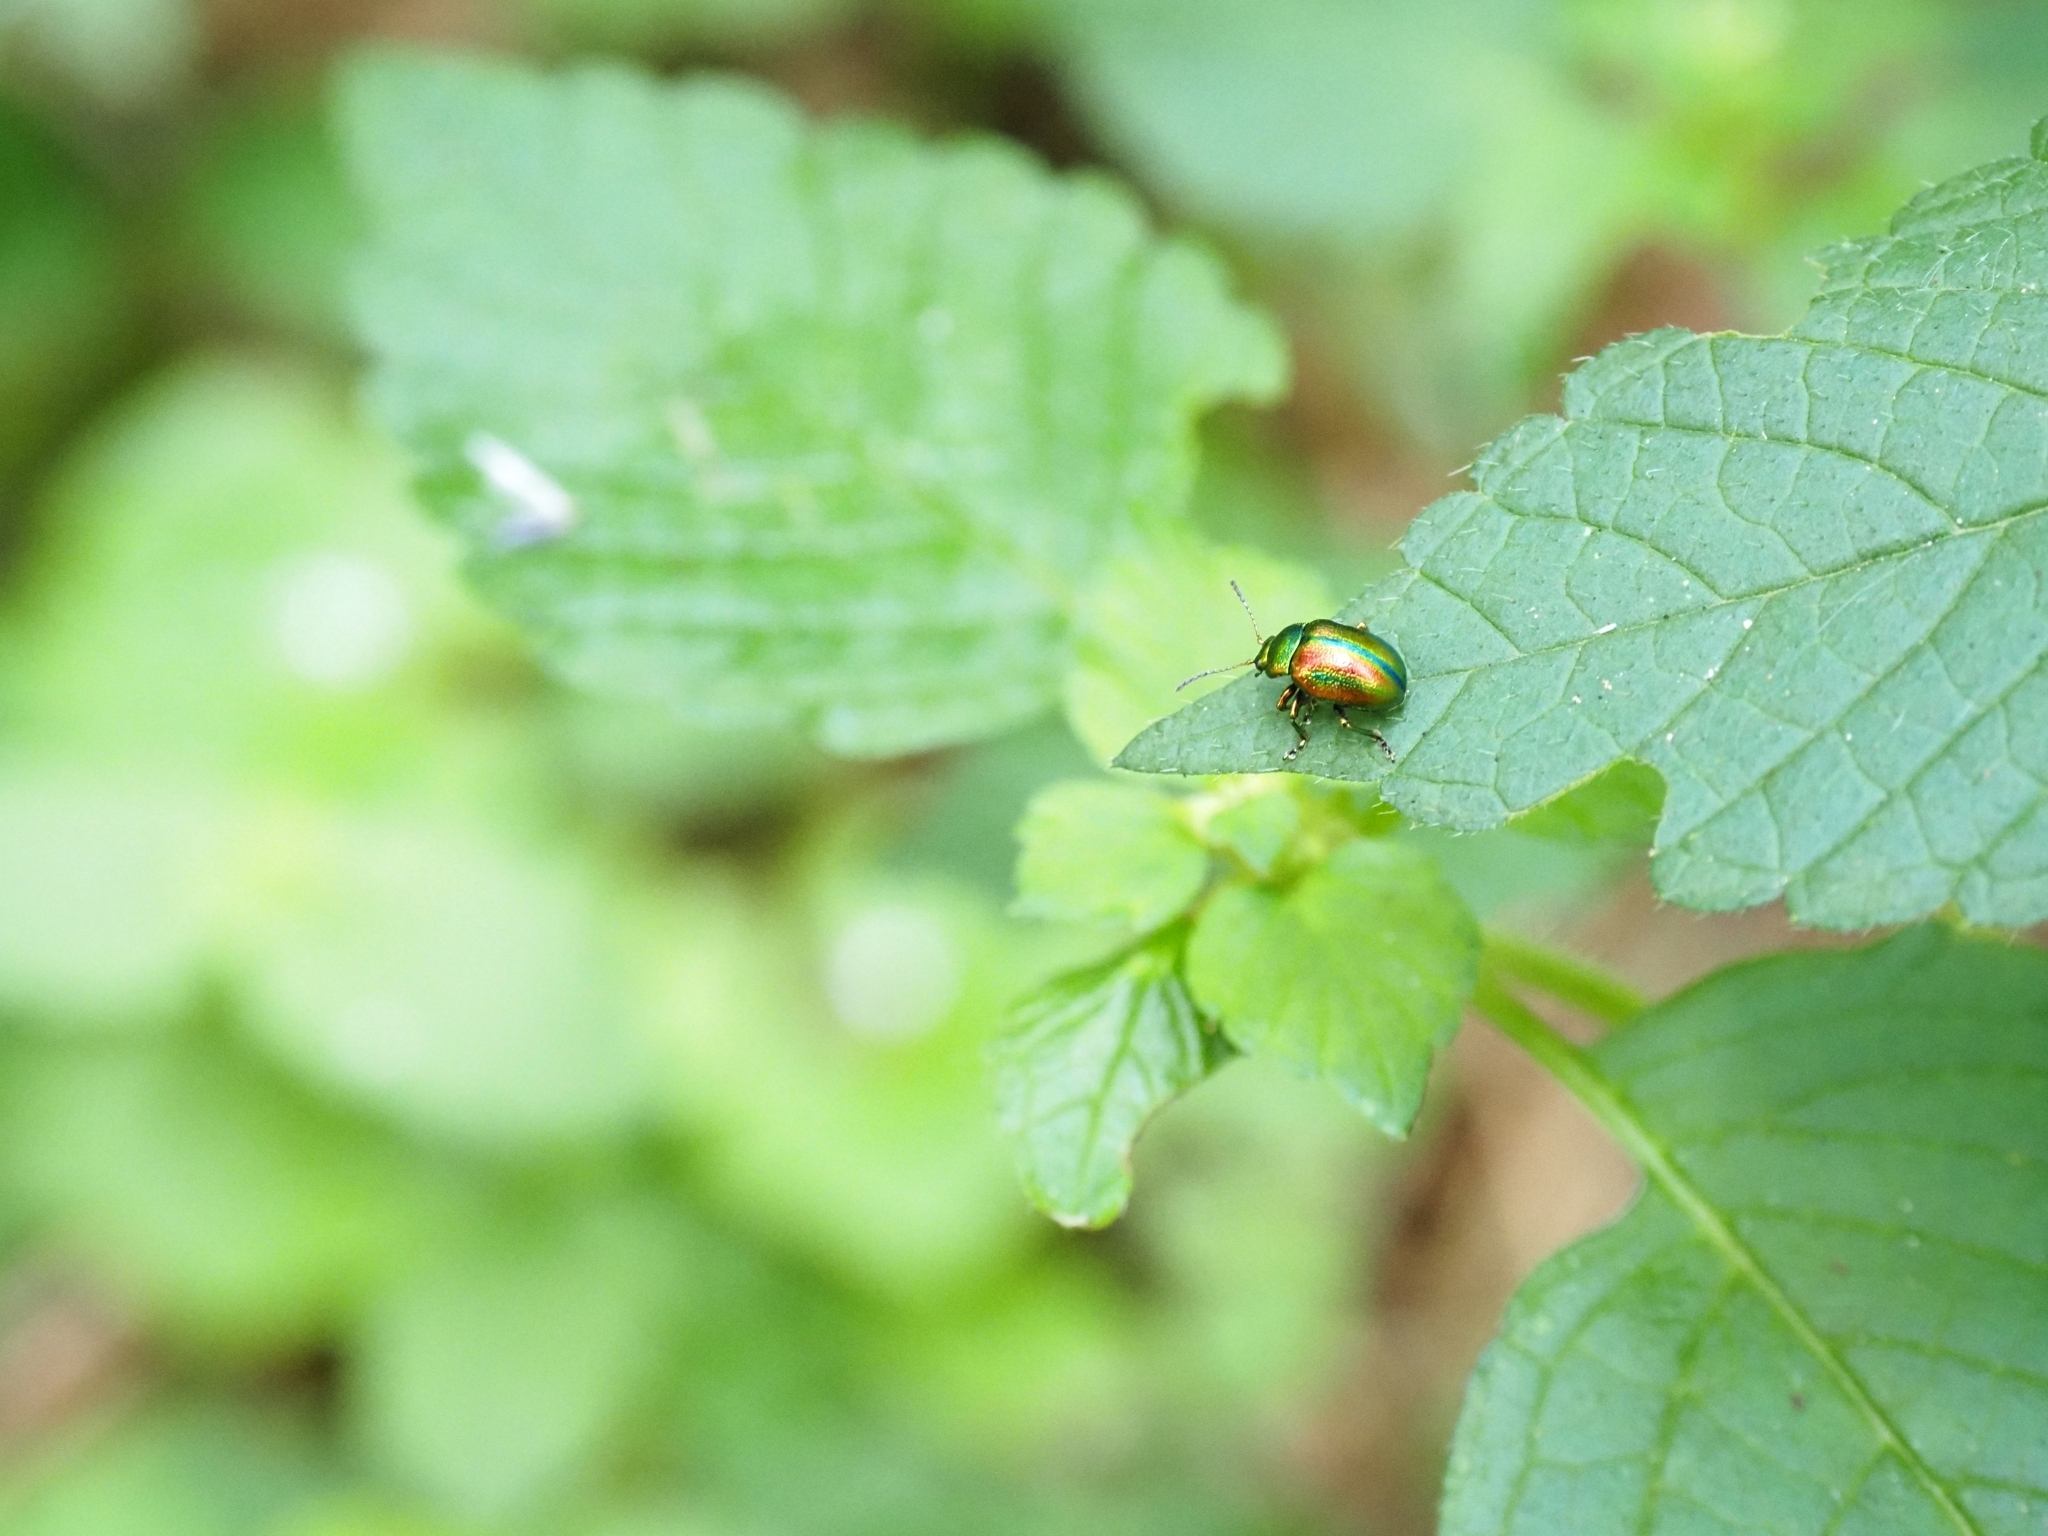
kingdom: Animalia
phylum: Arthropoda
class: Insecta
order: Coleoptera
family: Chrysomelidae
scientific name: Chrysomelidae
